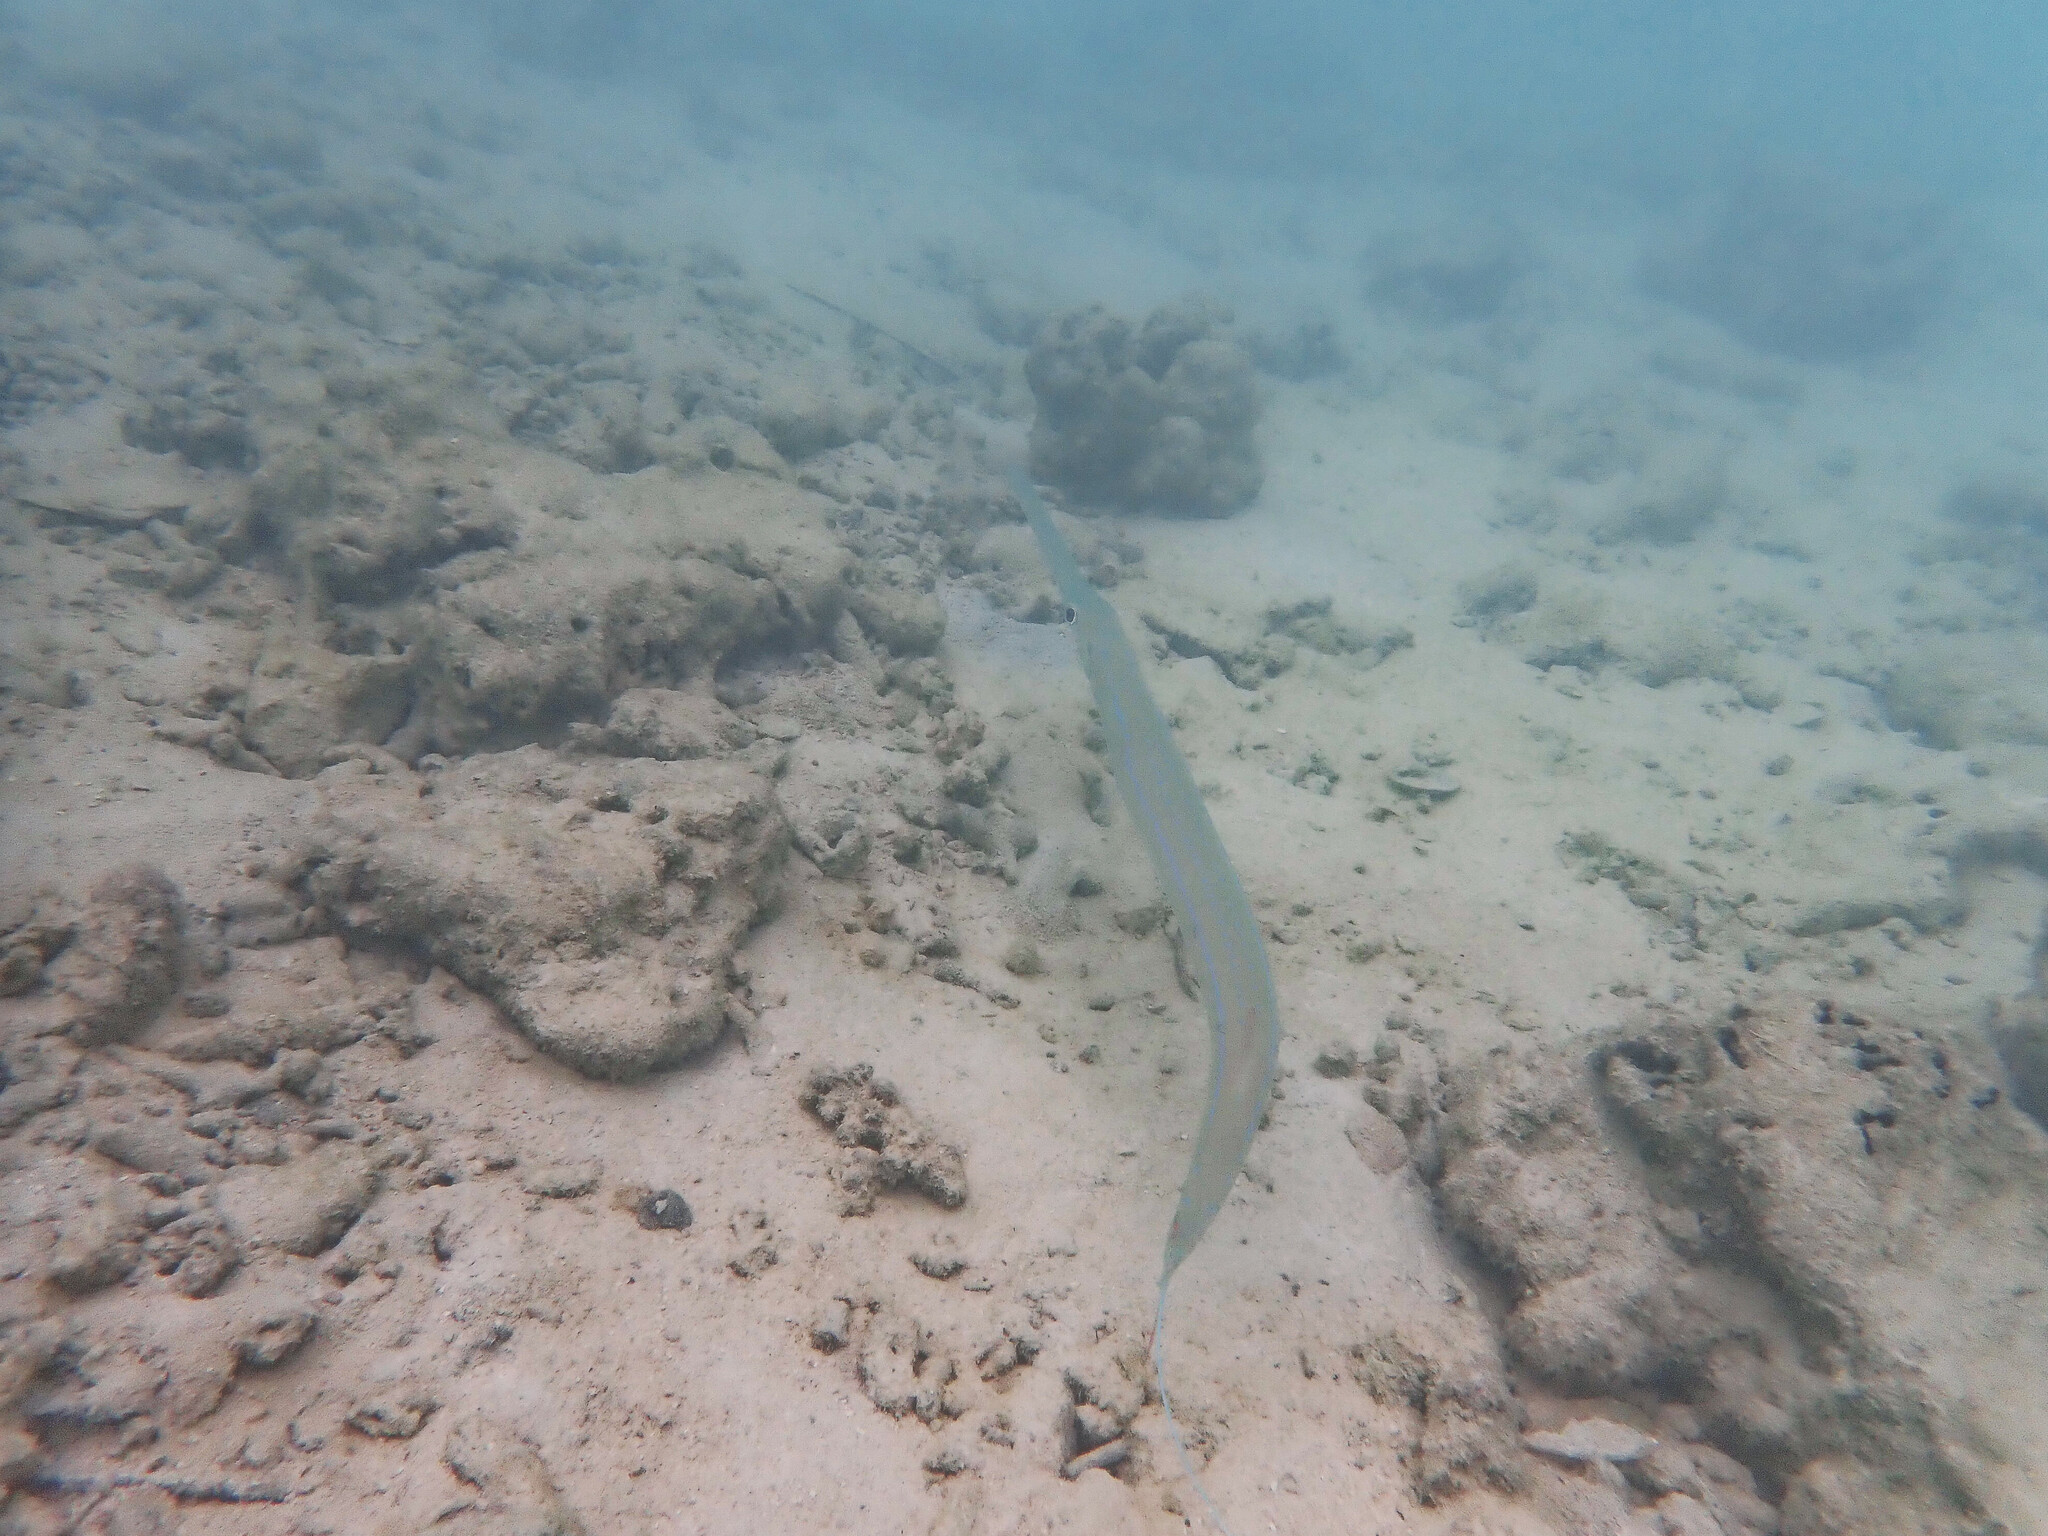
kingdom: Animalia
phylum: Chordata
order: Syngnathiformes
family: Fistulariidae
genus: Fistularia
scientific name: Fistularia commersonii
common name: Bluespotted cornetfish
